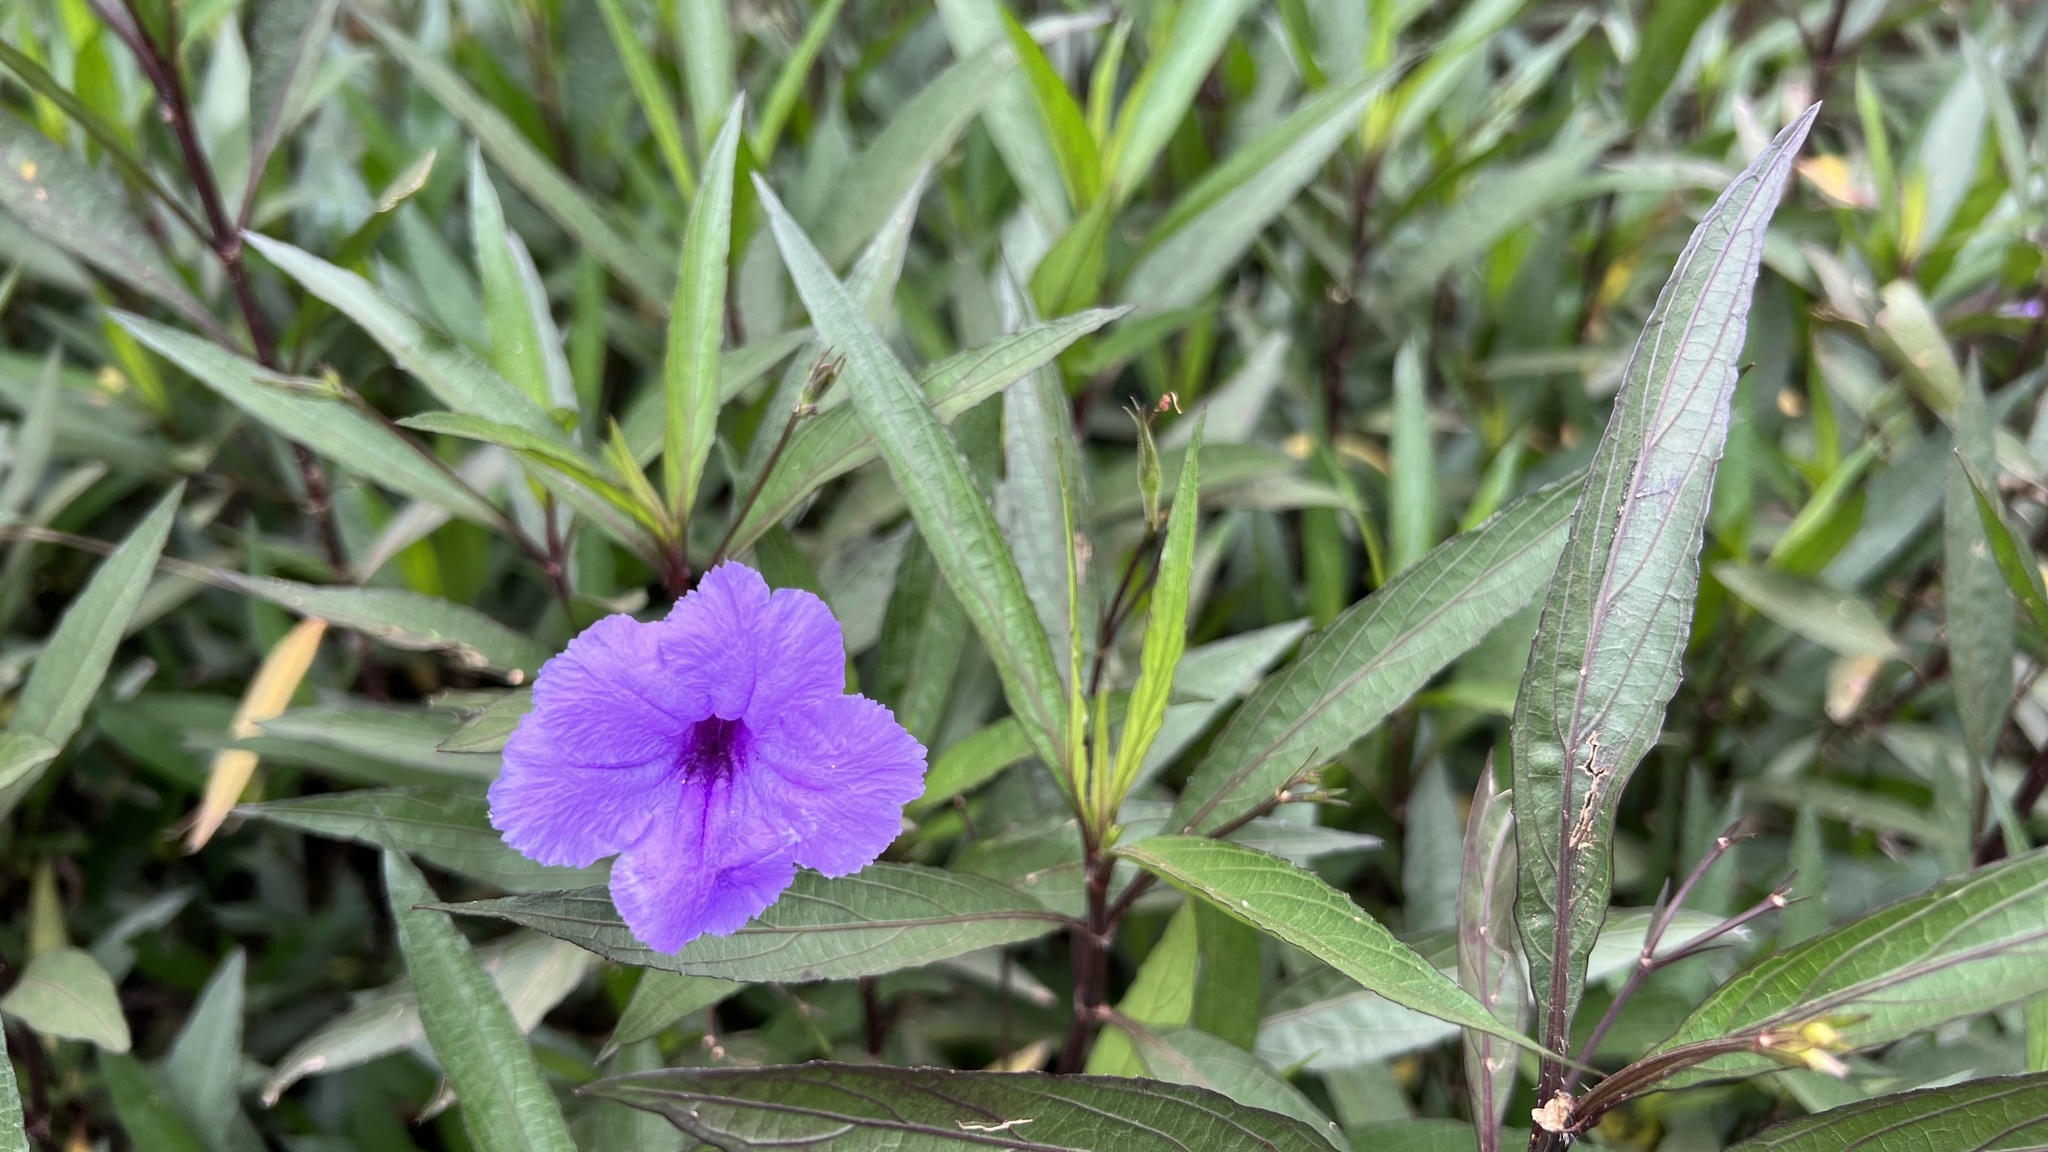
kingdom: Plantae
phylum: Tracheophyta
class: Magnoliopsida
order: Lamiales
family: Acanthaceae
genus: Ruellia
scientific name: Ruellia simplex
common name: Softseed wild petunia
